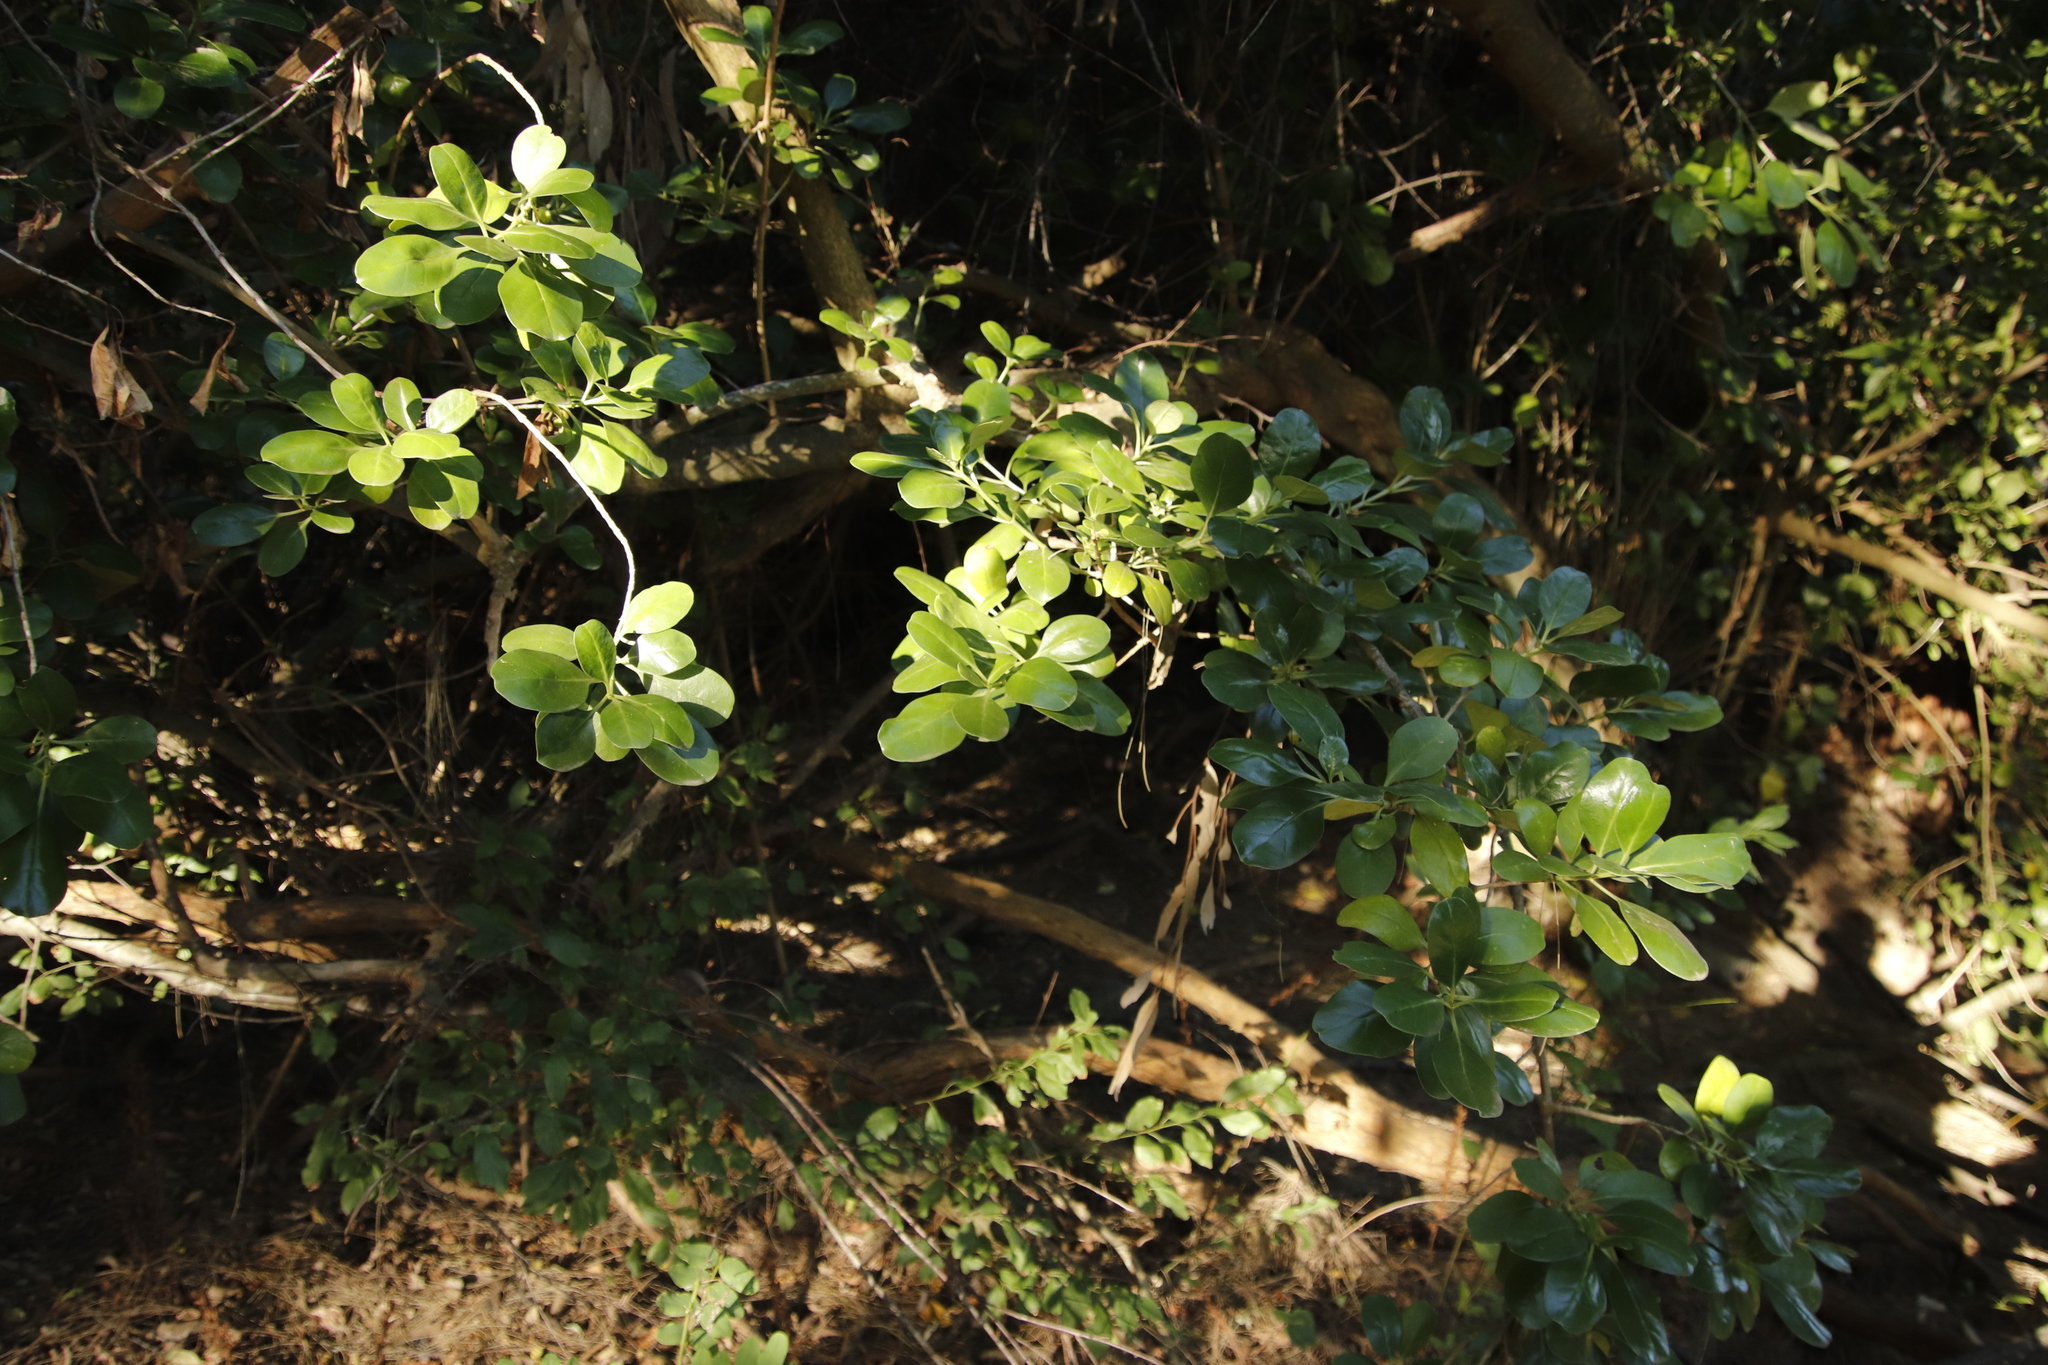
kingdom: Plantae
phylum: Tracheophyta
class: Magnoliopsida
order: Gentianales
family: Rubiaceae
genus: Coprosma
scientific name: Coprosma repens
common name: Tree bedstraw
